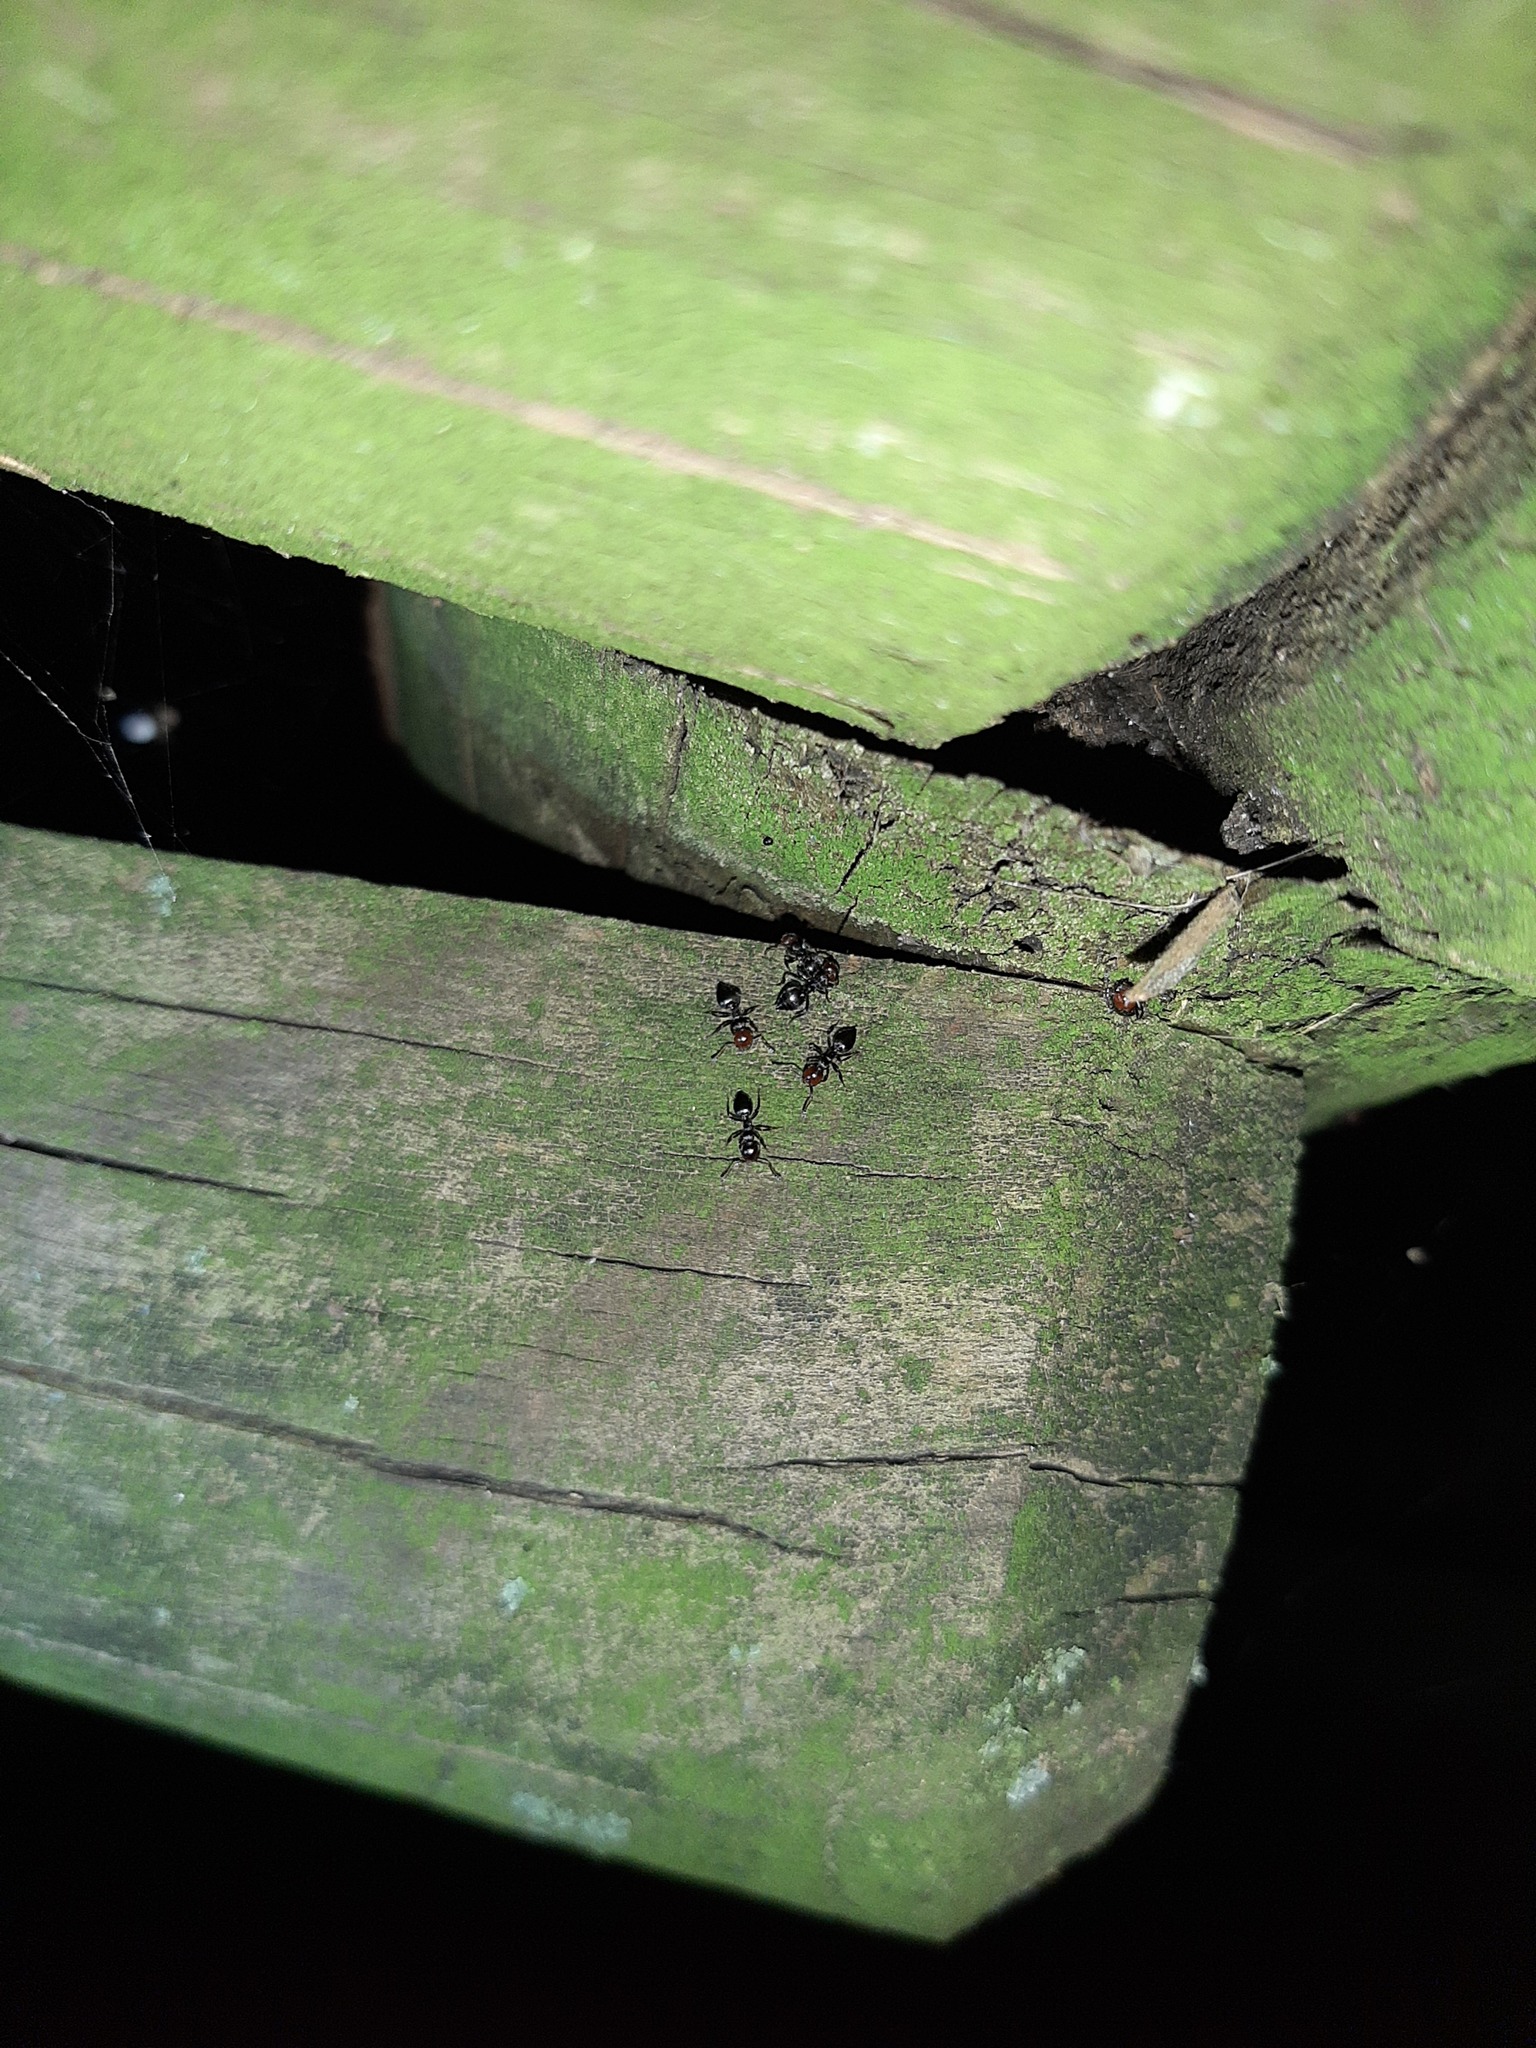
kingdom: Animalia
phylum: Arthropoda
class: Insecta
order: Hymenoptera
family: Formicidae
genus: Crematogaster
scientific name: Crematogaster scutellaris
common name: Fourmi du liège
